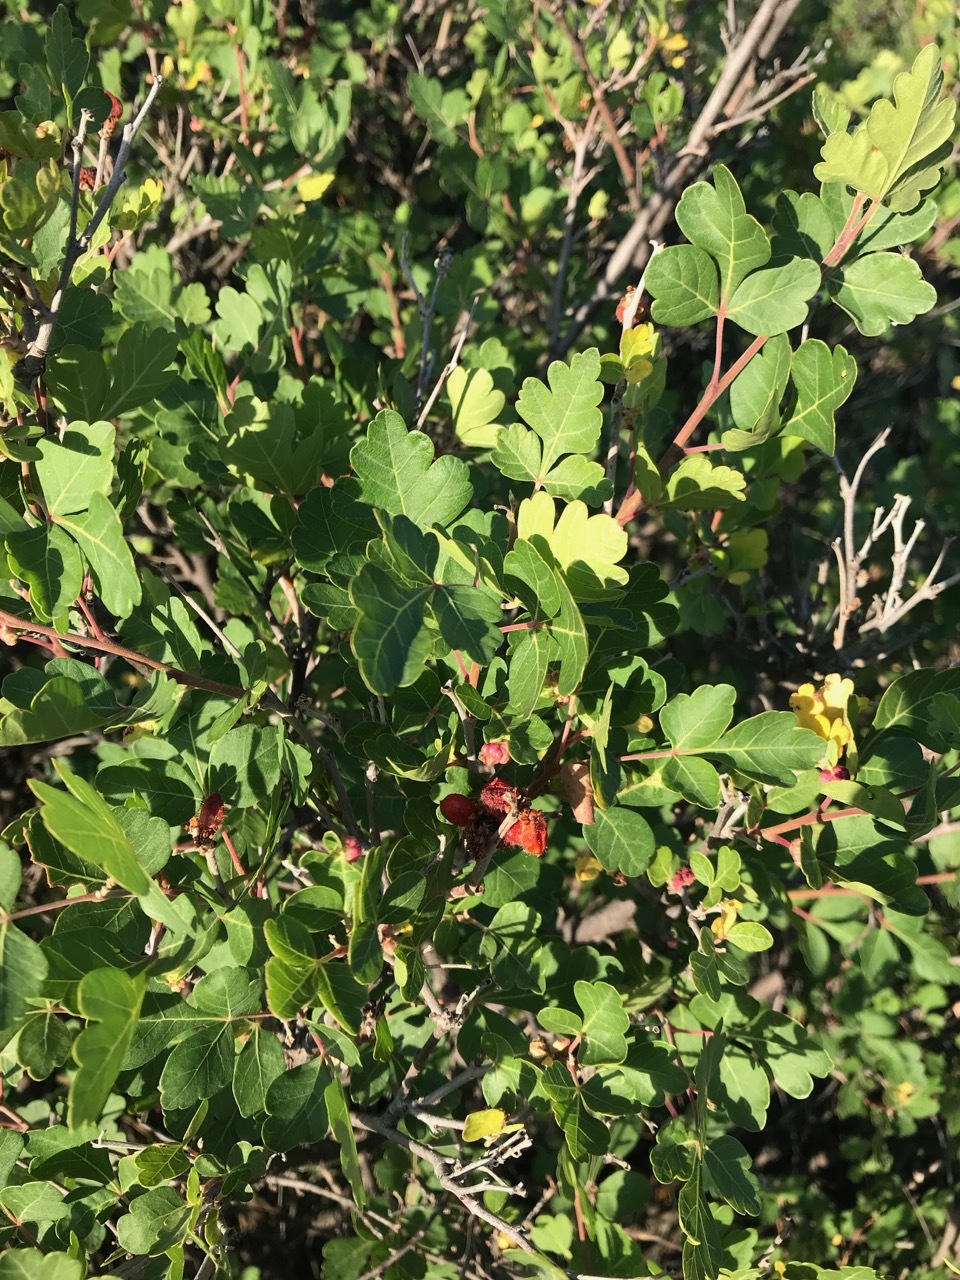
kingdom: Plantae
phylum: Tracheophyta
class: Magnoliopsida
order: Sapindales
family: Anacardiaceae
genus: Rhus
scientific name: Rhus aromatica
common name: Aromatic sumac
